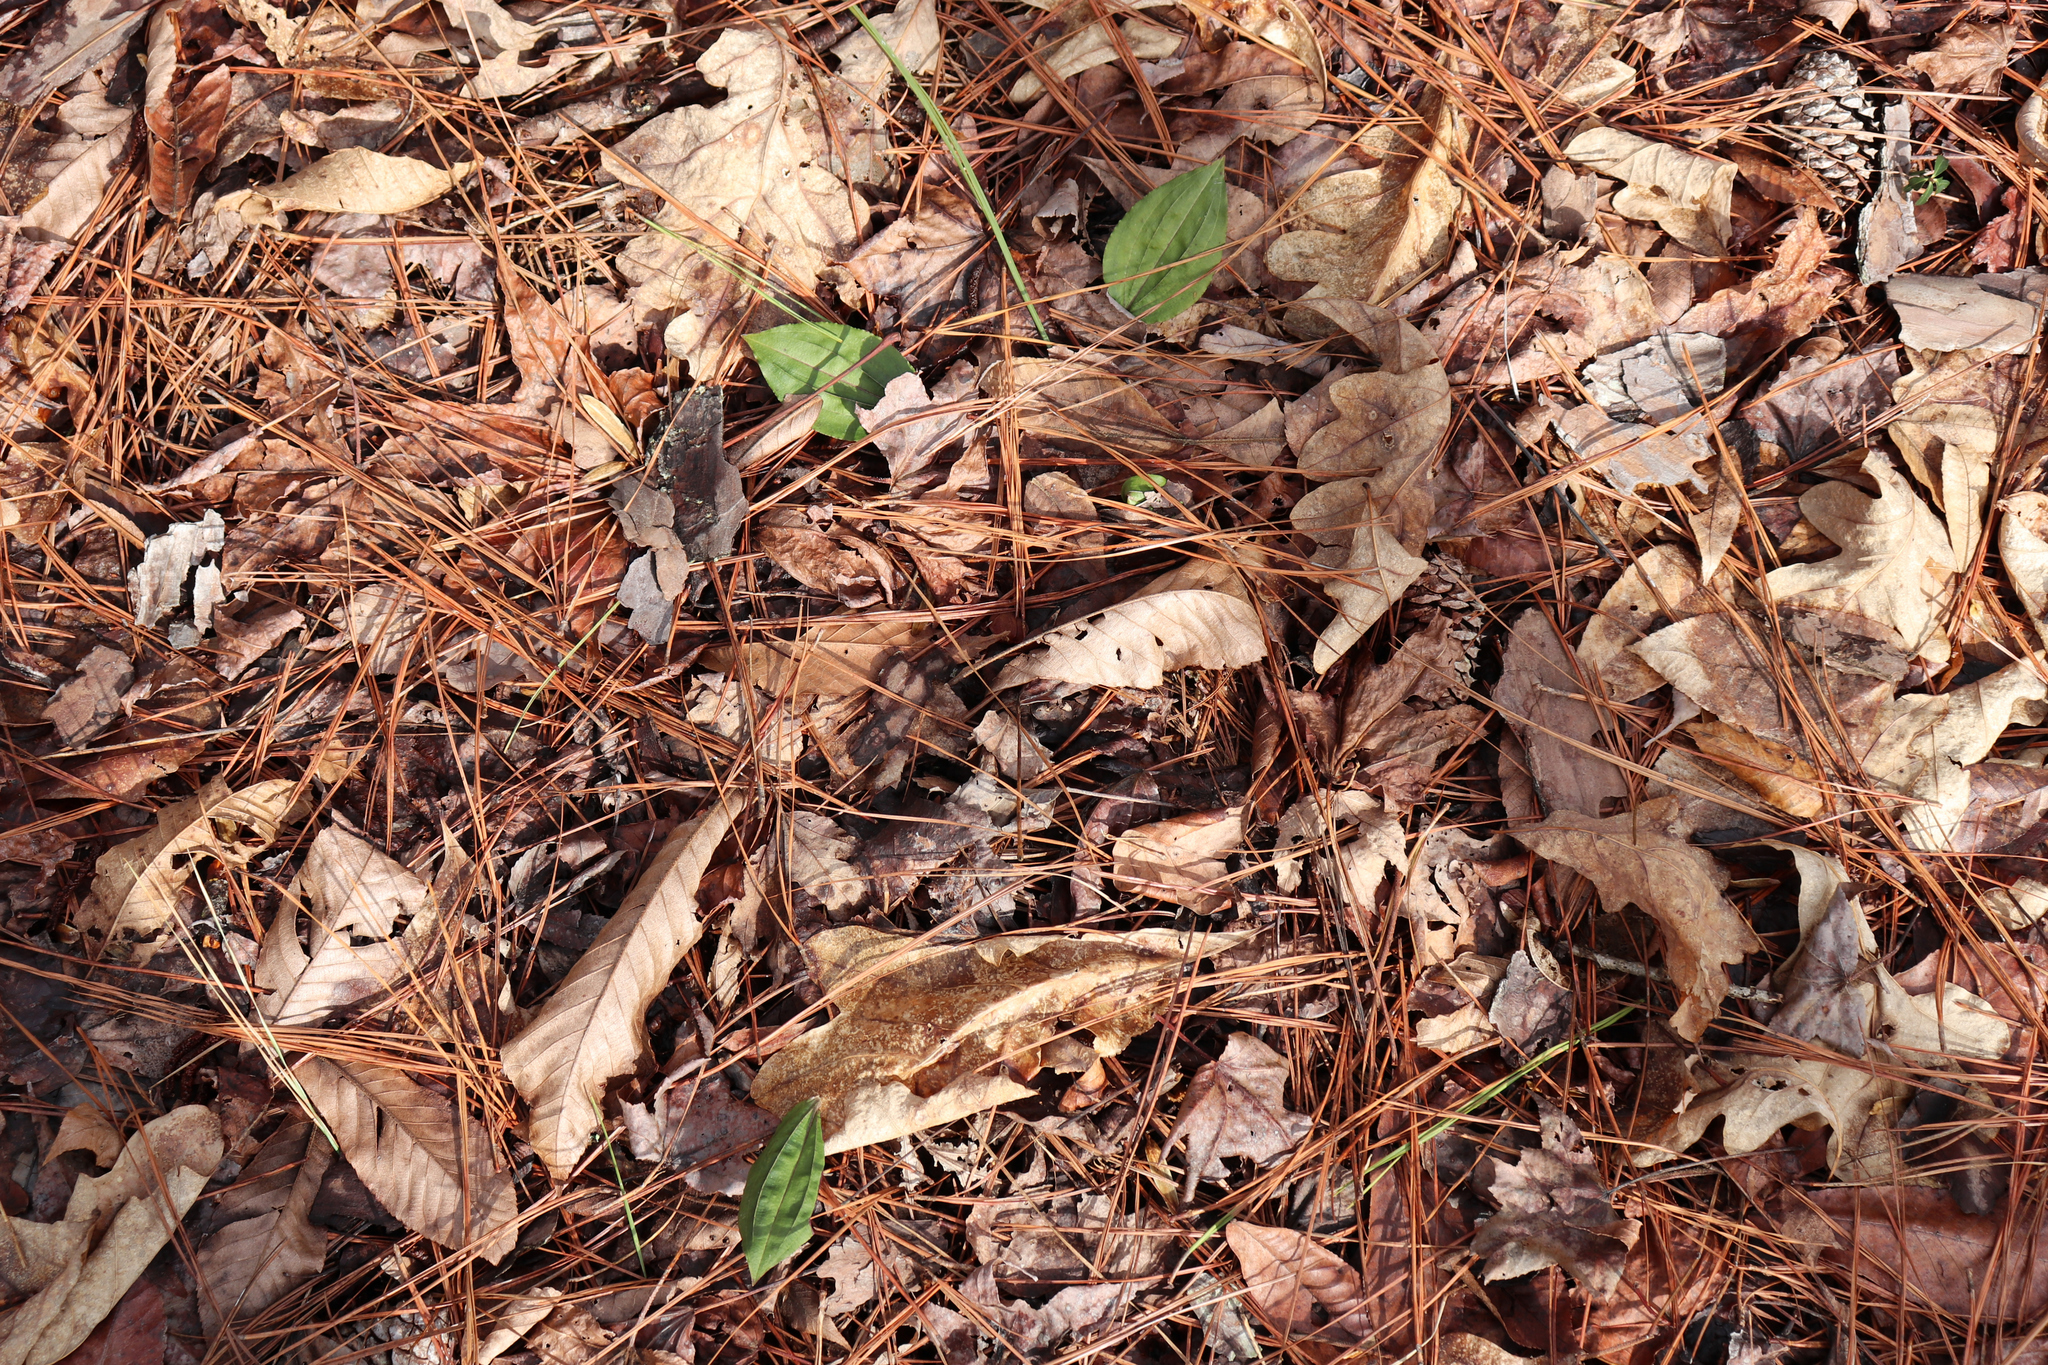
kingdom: Plantae
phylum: Tracheophyta
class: Liliopsida
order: Asparagales
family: Orchidaceae
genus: Tipularia
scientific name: Tipularia discolor
